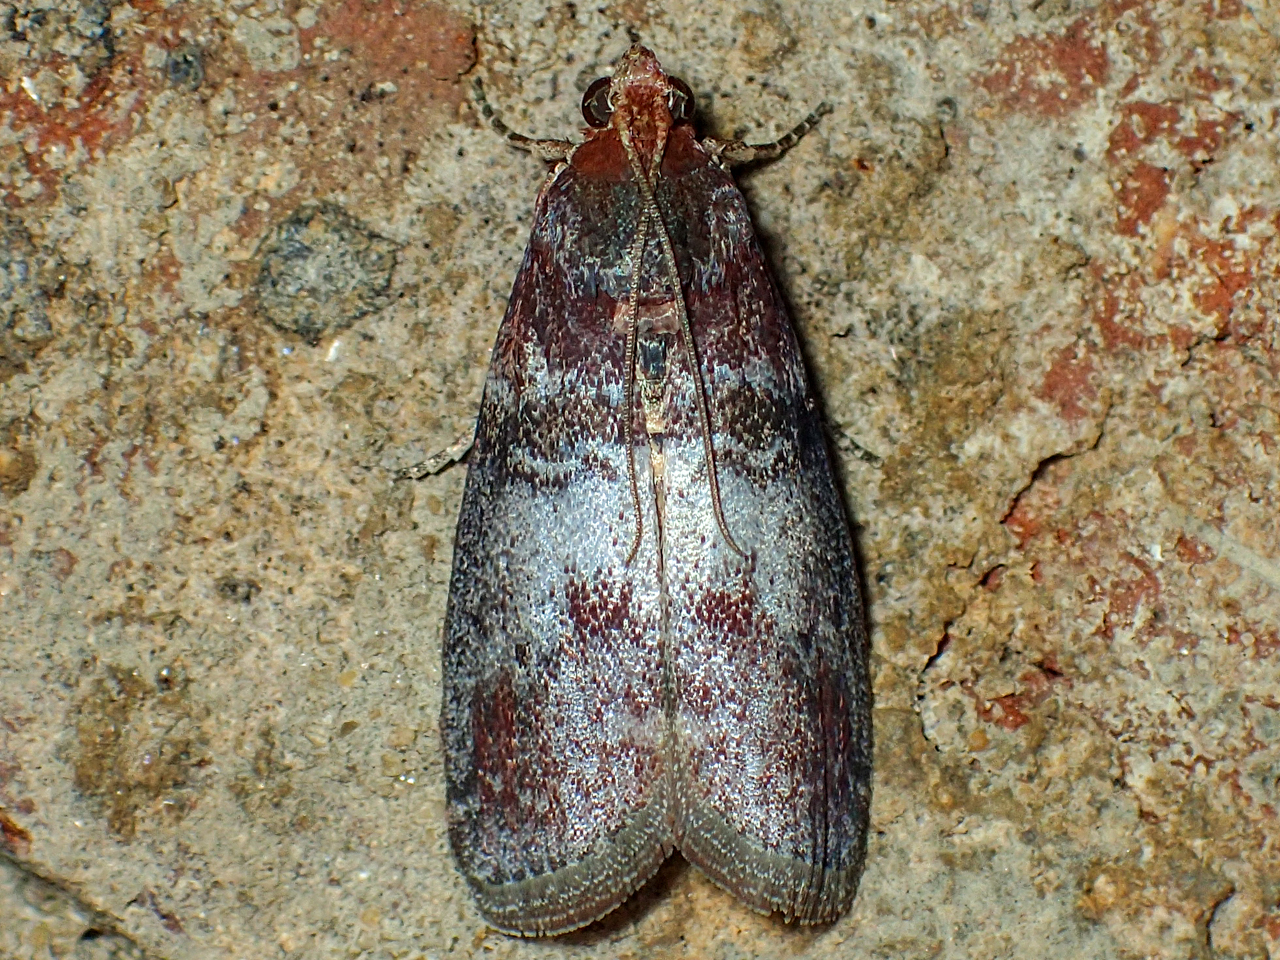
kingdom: Animalia
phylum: Arthropoda
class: Insecta
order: Lepidoptera
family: Pyralidae
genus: Sciota
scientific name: Sciota uvinella
